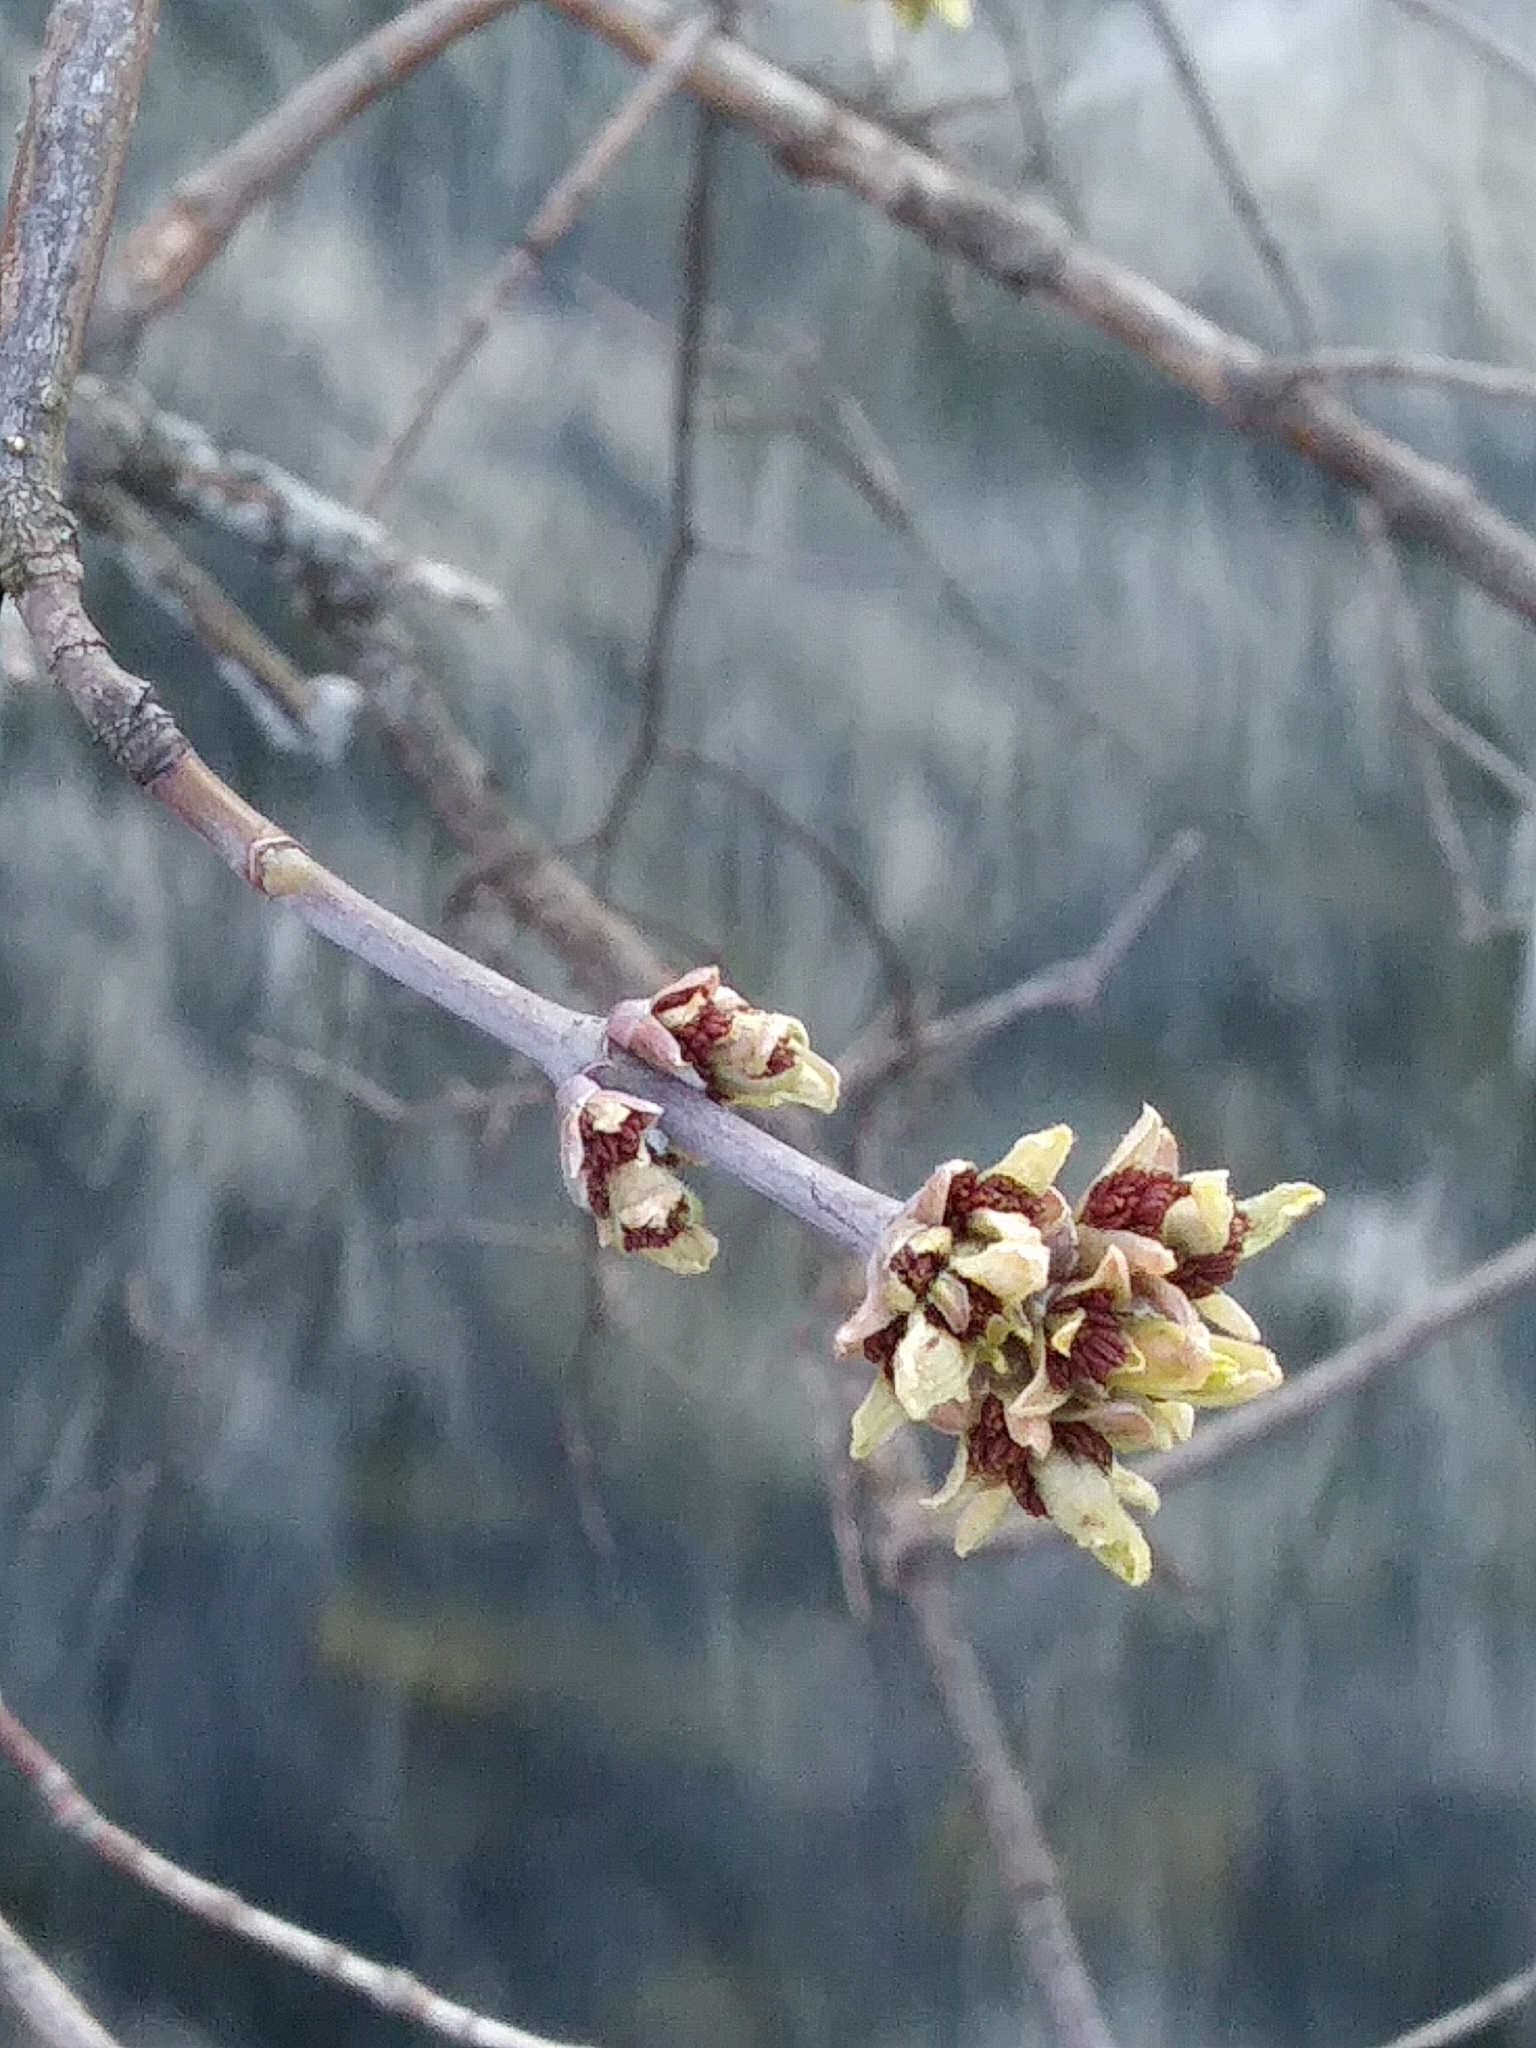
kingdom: Plantae
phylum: Tracheophyta
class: Magnoliopsida
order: Sapindales
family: Sapindaceae
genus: Acer
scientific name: Acer negundo
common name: Ashleaf maple
